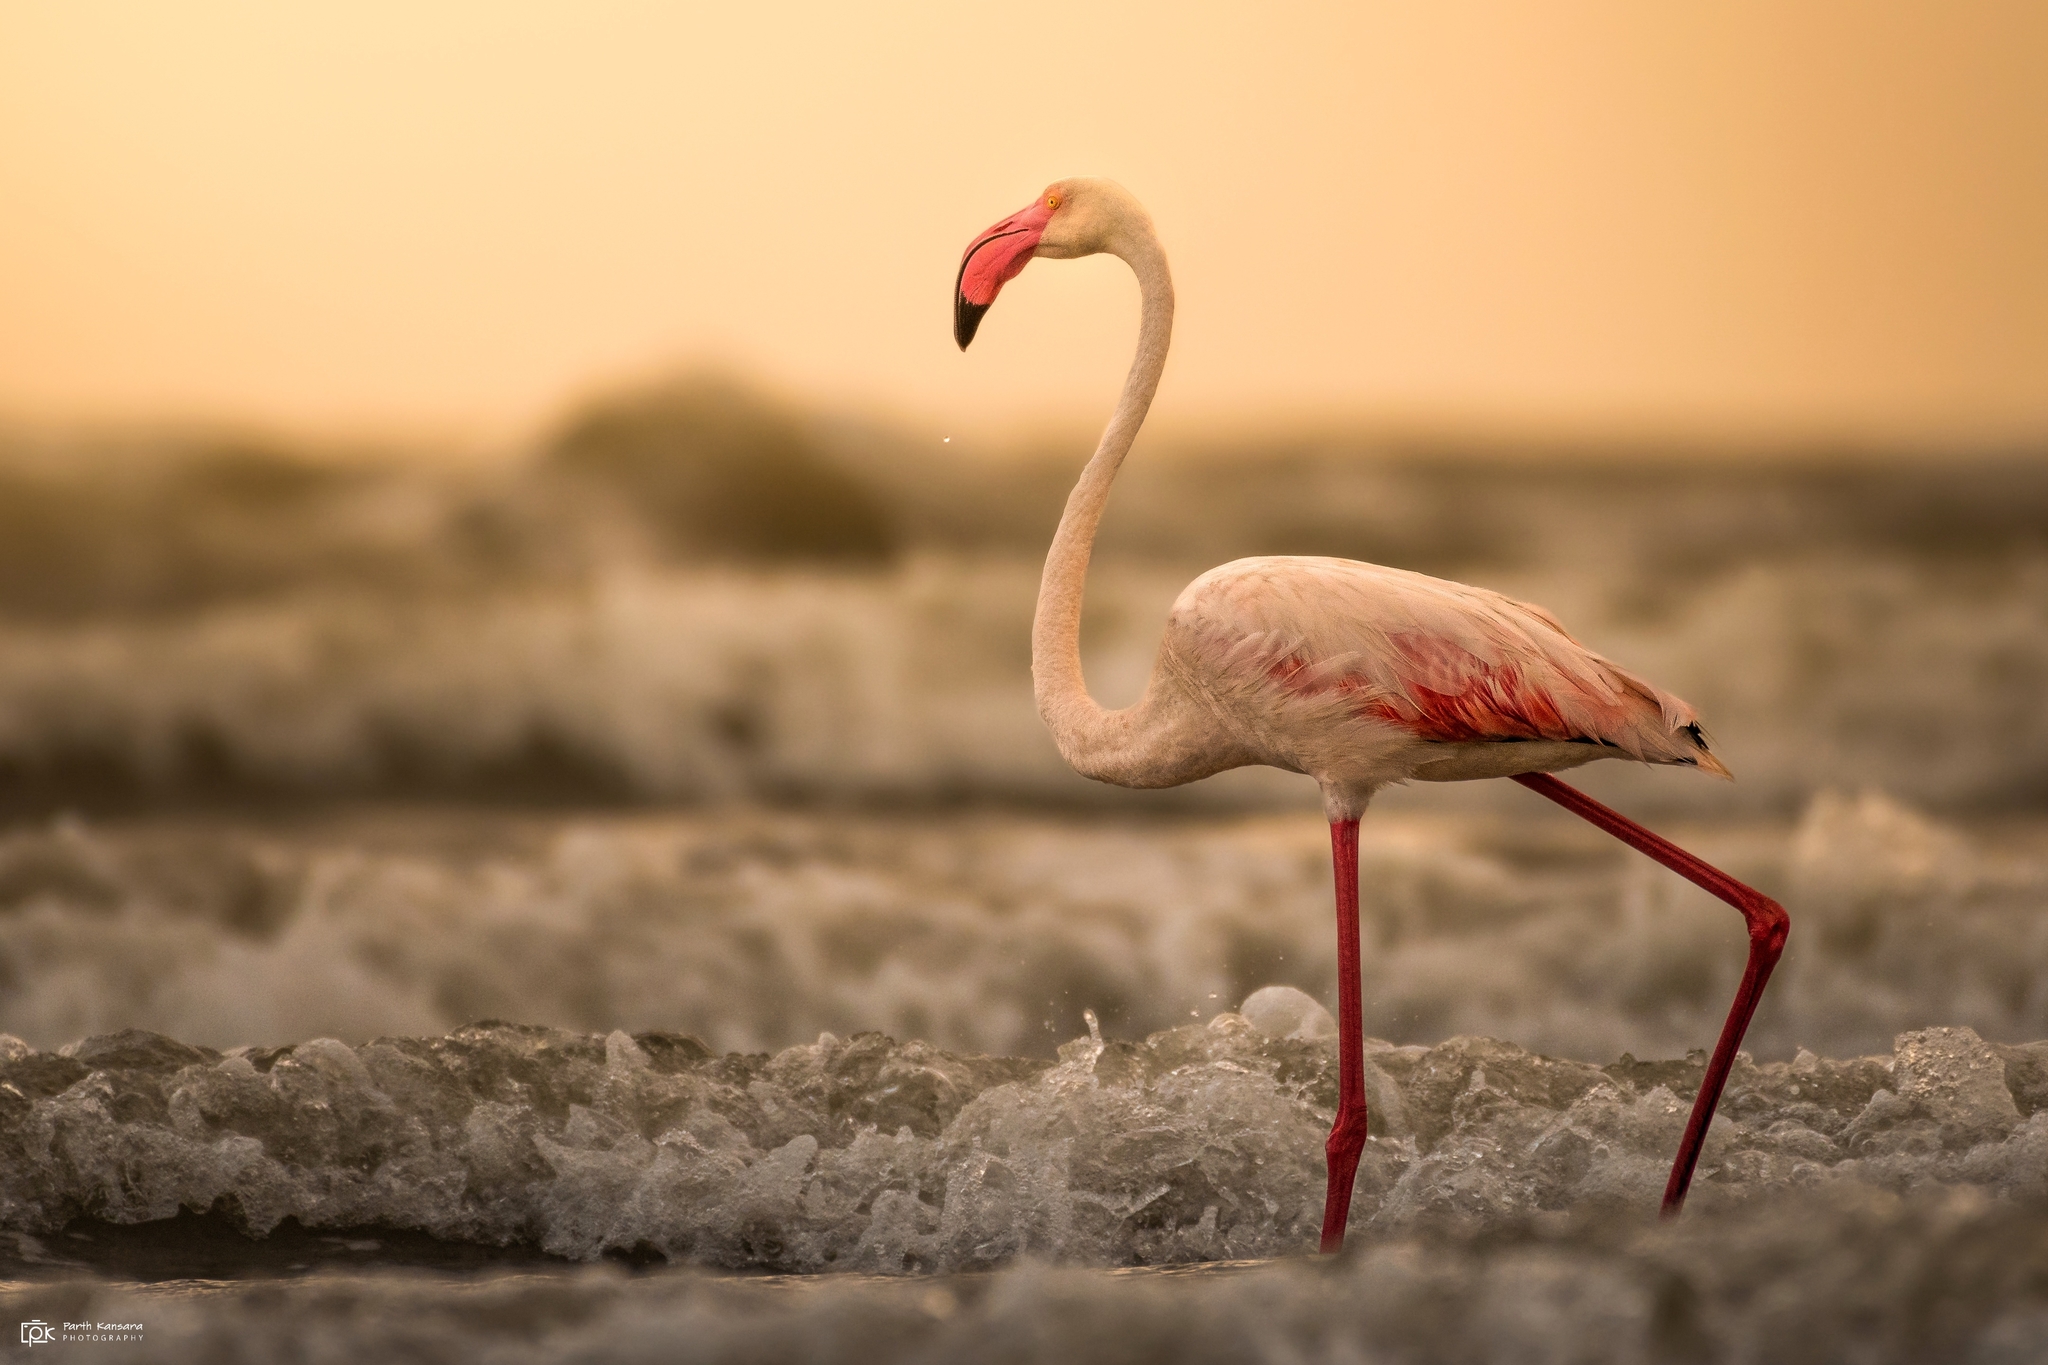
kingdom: Animalia
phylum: Chordata
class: Aves
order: Phoenicopteriformes
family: Phoenicopteridae
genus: Phoenicopterus
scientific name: Phoenicopterus roseus
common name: Greater flamingo
